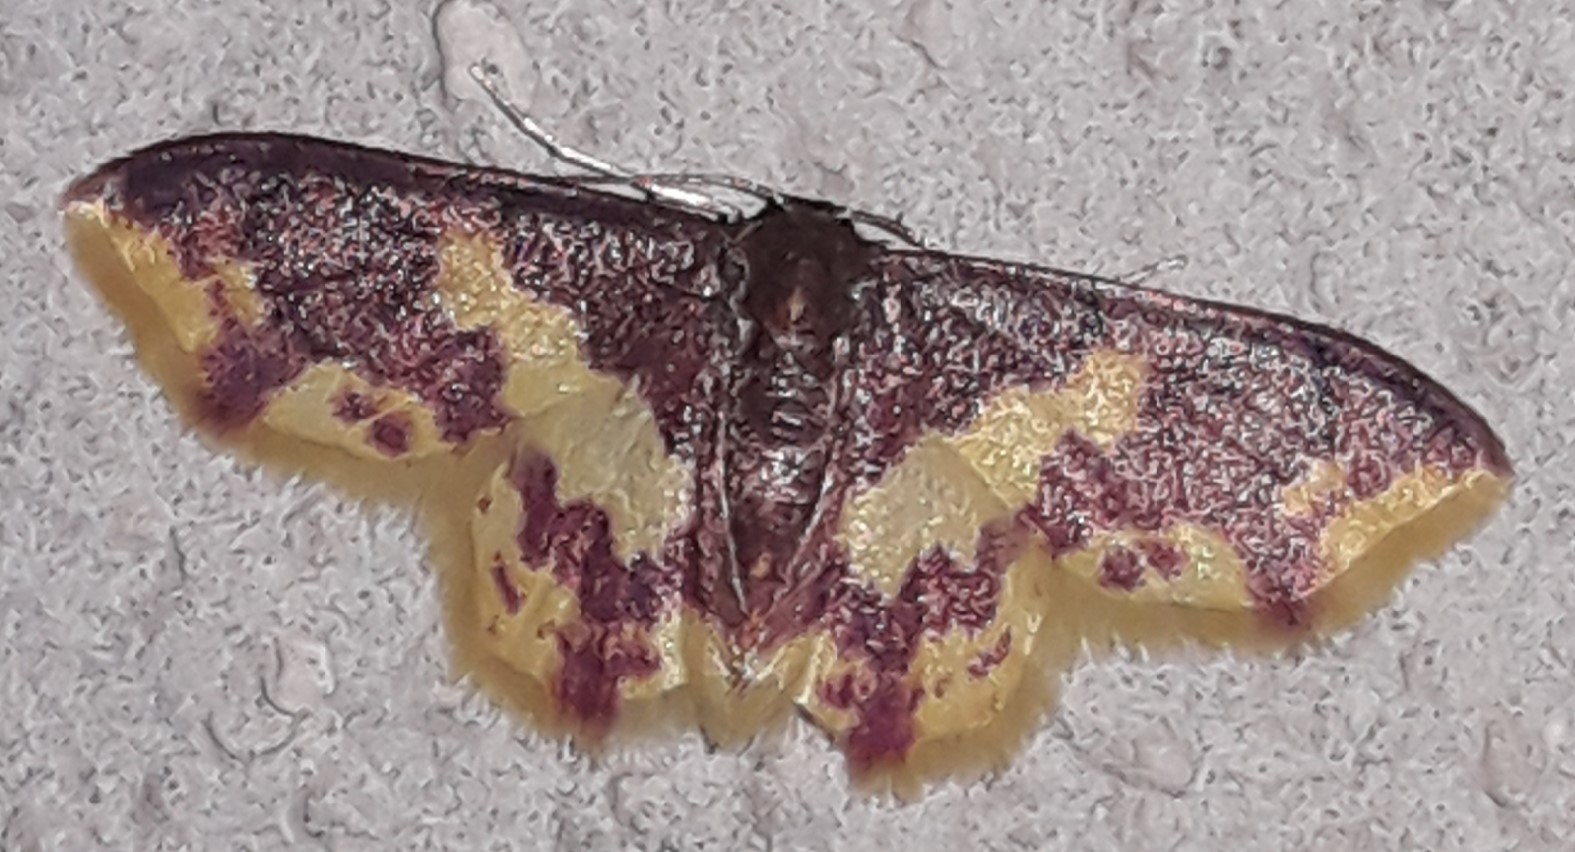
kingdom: Animalia
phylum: Arthropoda
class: Insecta
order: Lepidoptera
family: Geometridae
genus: Tricentrogyna
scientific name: Tricentrogyna violescens
